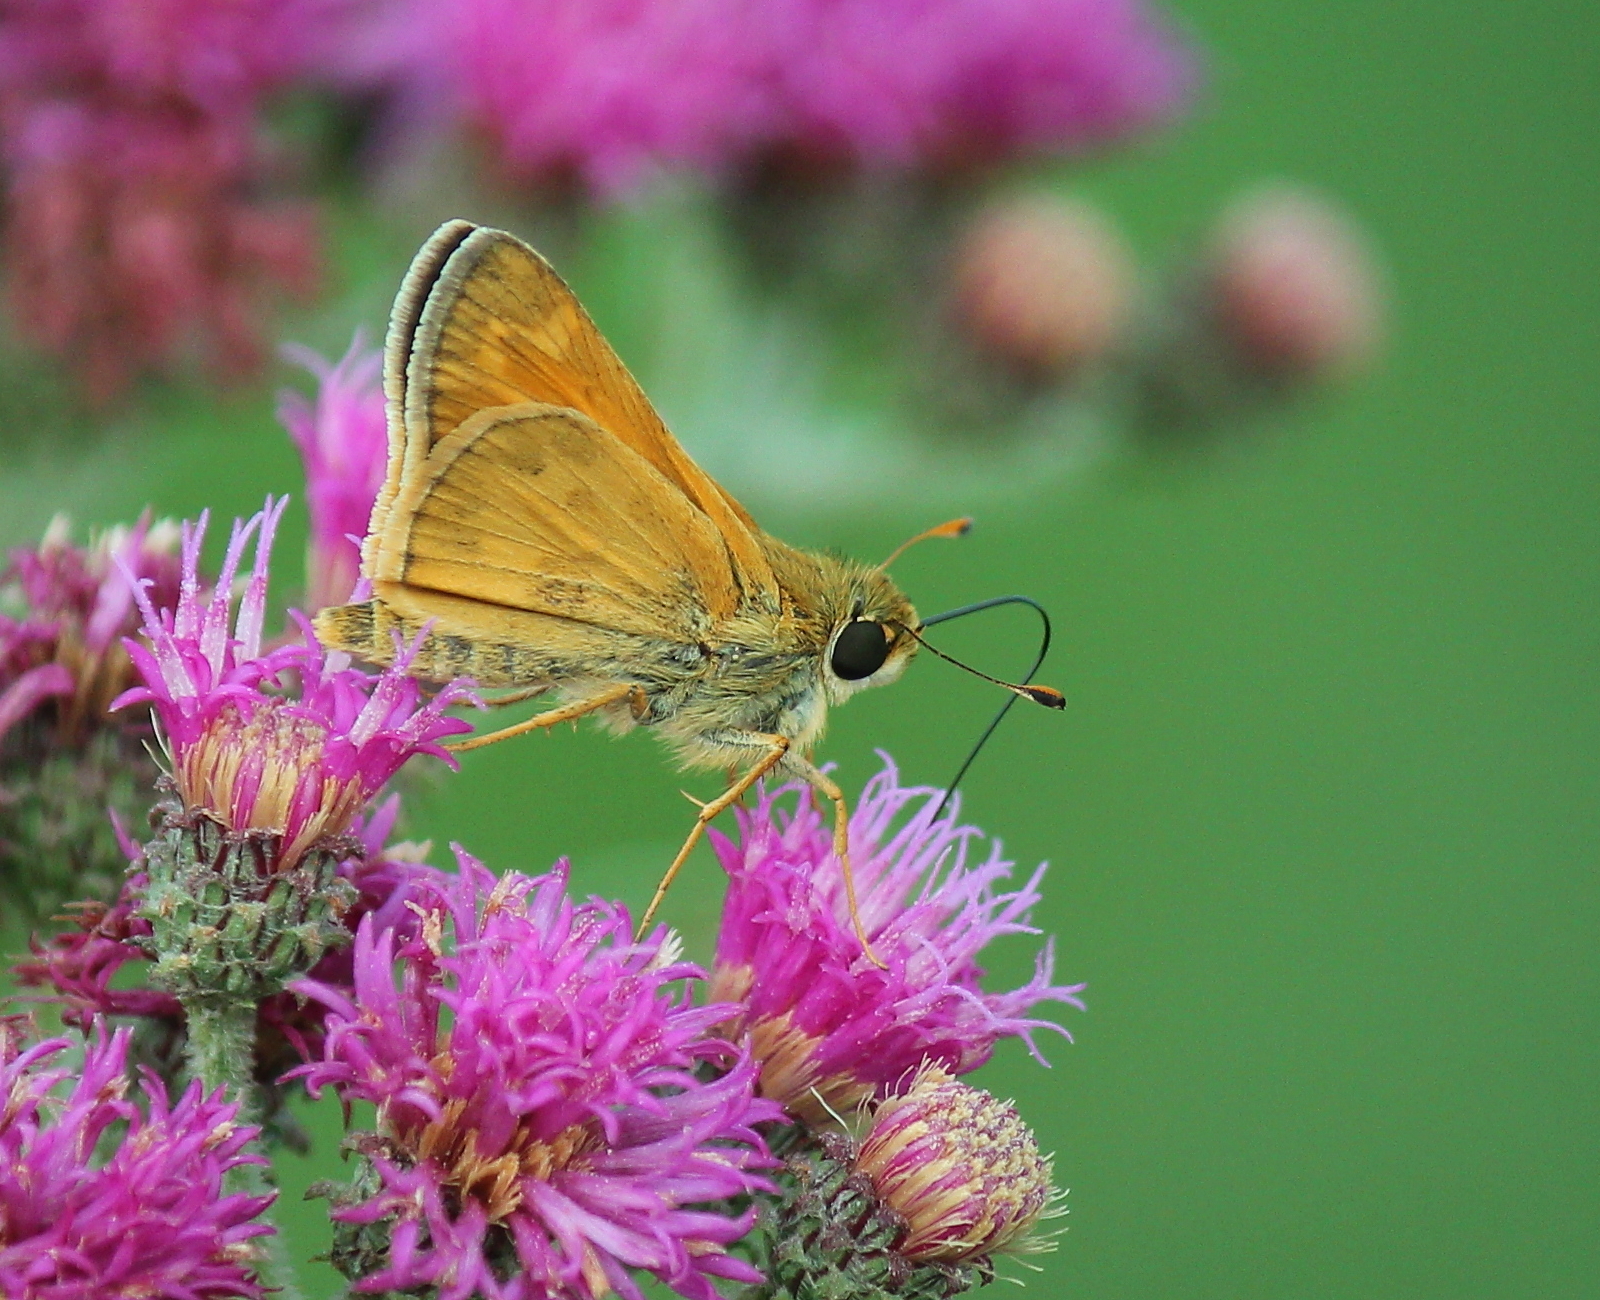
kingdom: Animalia
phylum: Arthropoda
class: Insecta
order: Lepidoptera
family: Hesperiidae
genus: Atalopedes
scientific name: Atalopedes
